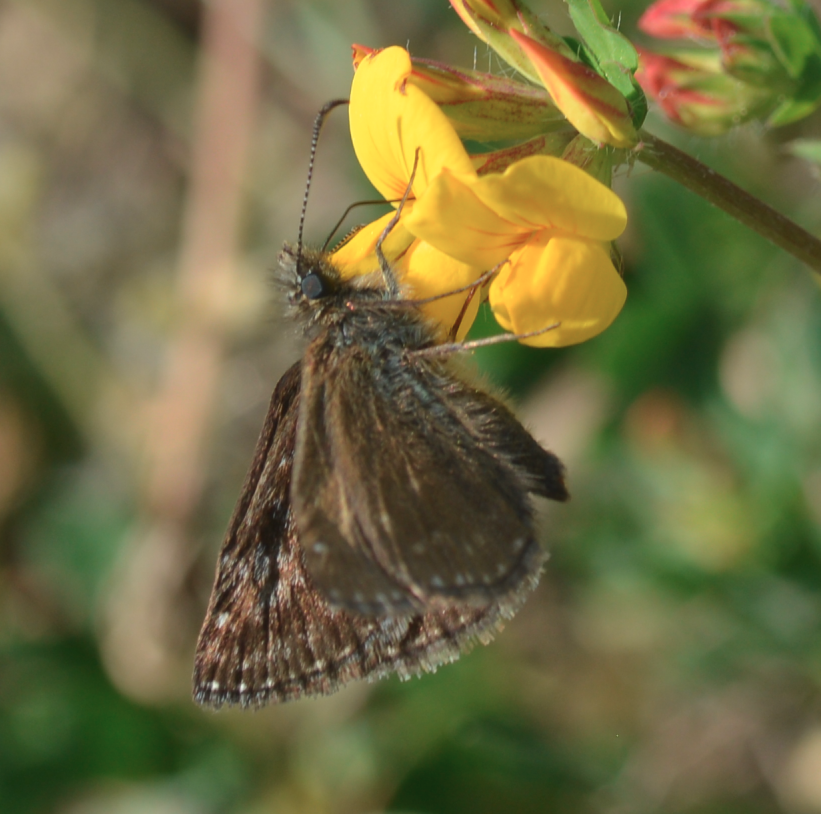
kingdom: Animalia
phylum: Arthropoda
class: Insecta
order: Lepidoptera
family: Hesperiidae
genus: Erynnis
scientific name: Erynnis tages
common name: Dingy skipper
